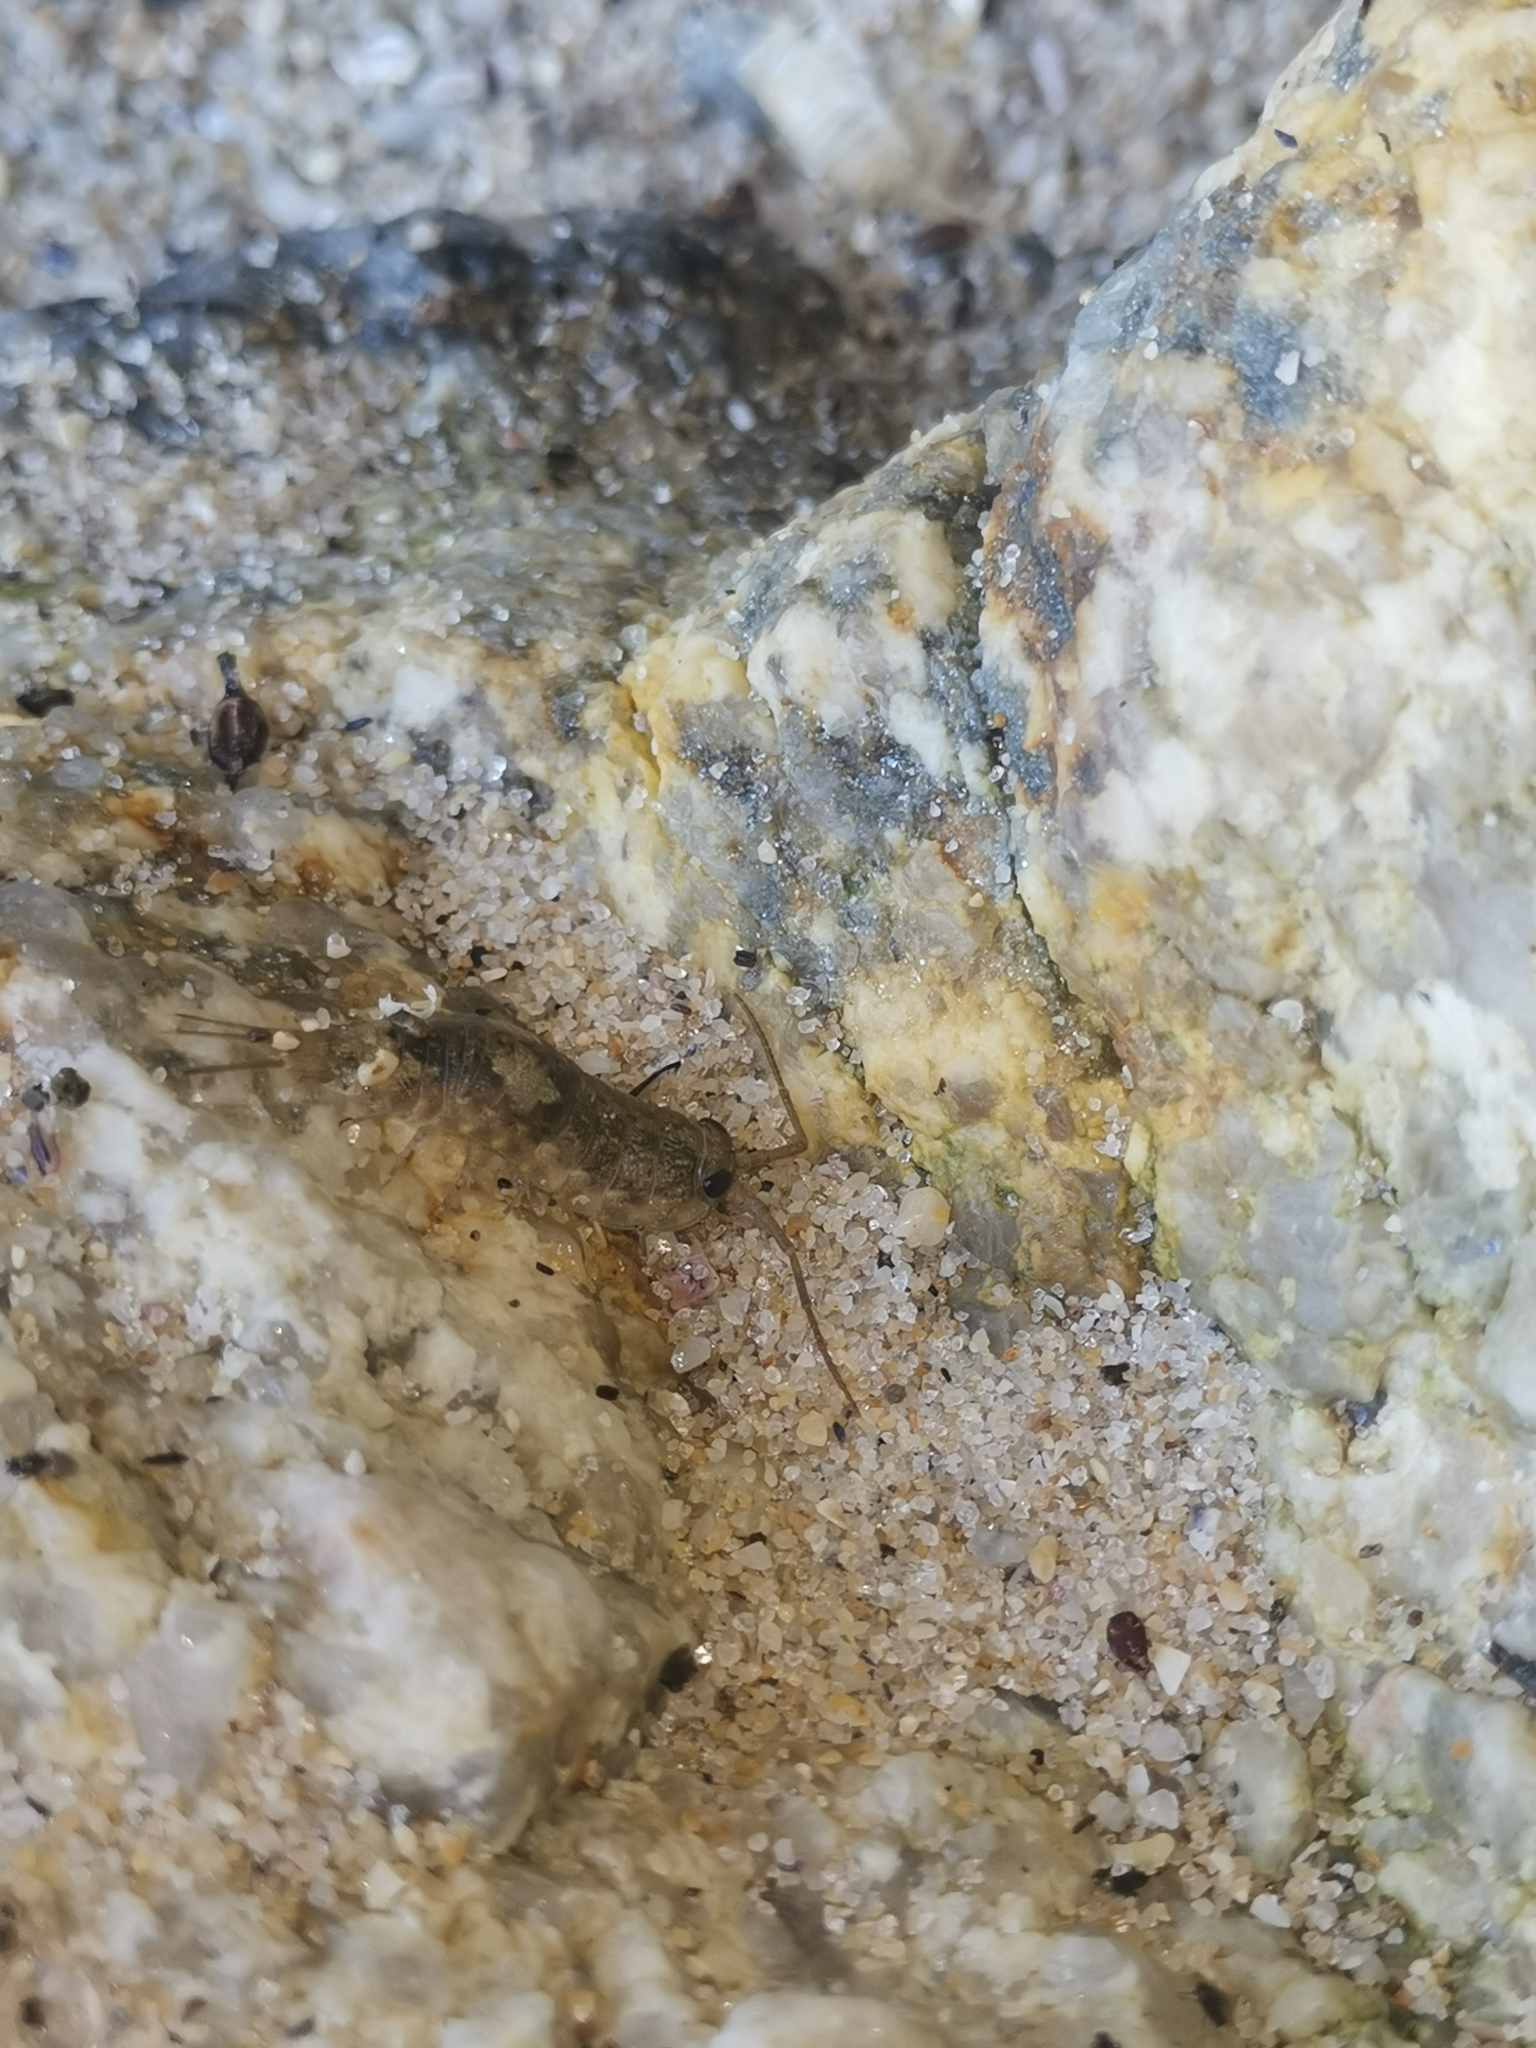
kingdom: Animalia
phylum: Arthropoda
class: Malacostraca
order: Isopoda
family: Ligiidae
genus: Ligia
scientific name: Ligia oceanica
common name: Sea slater
